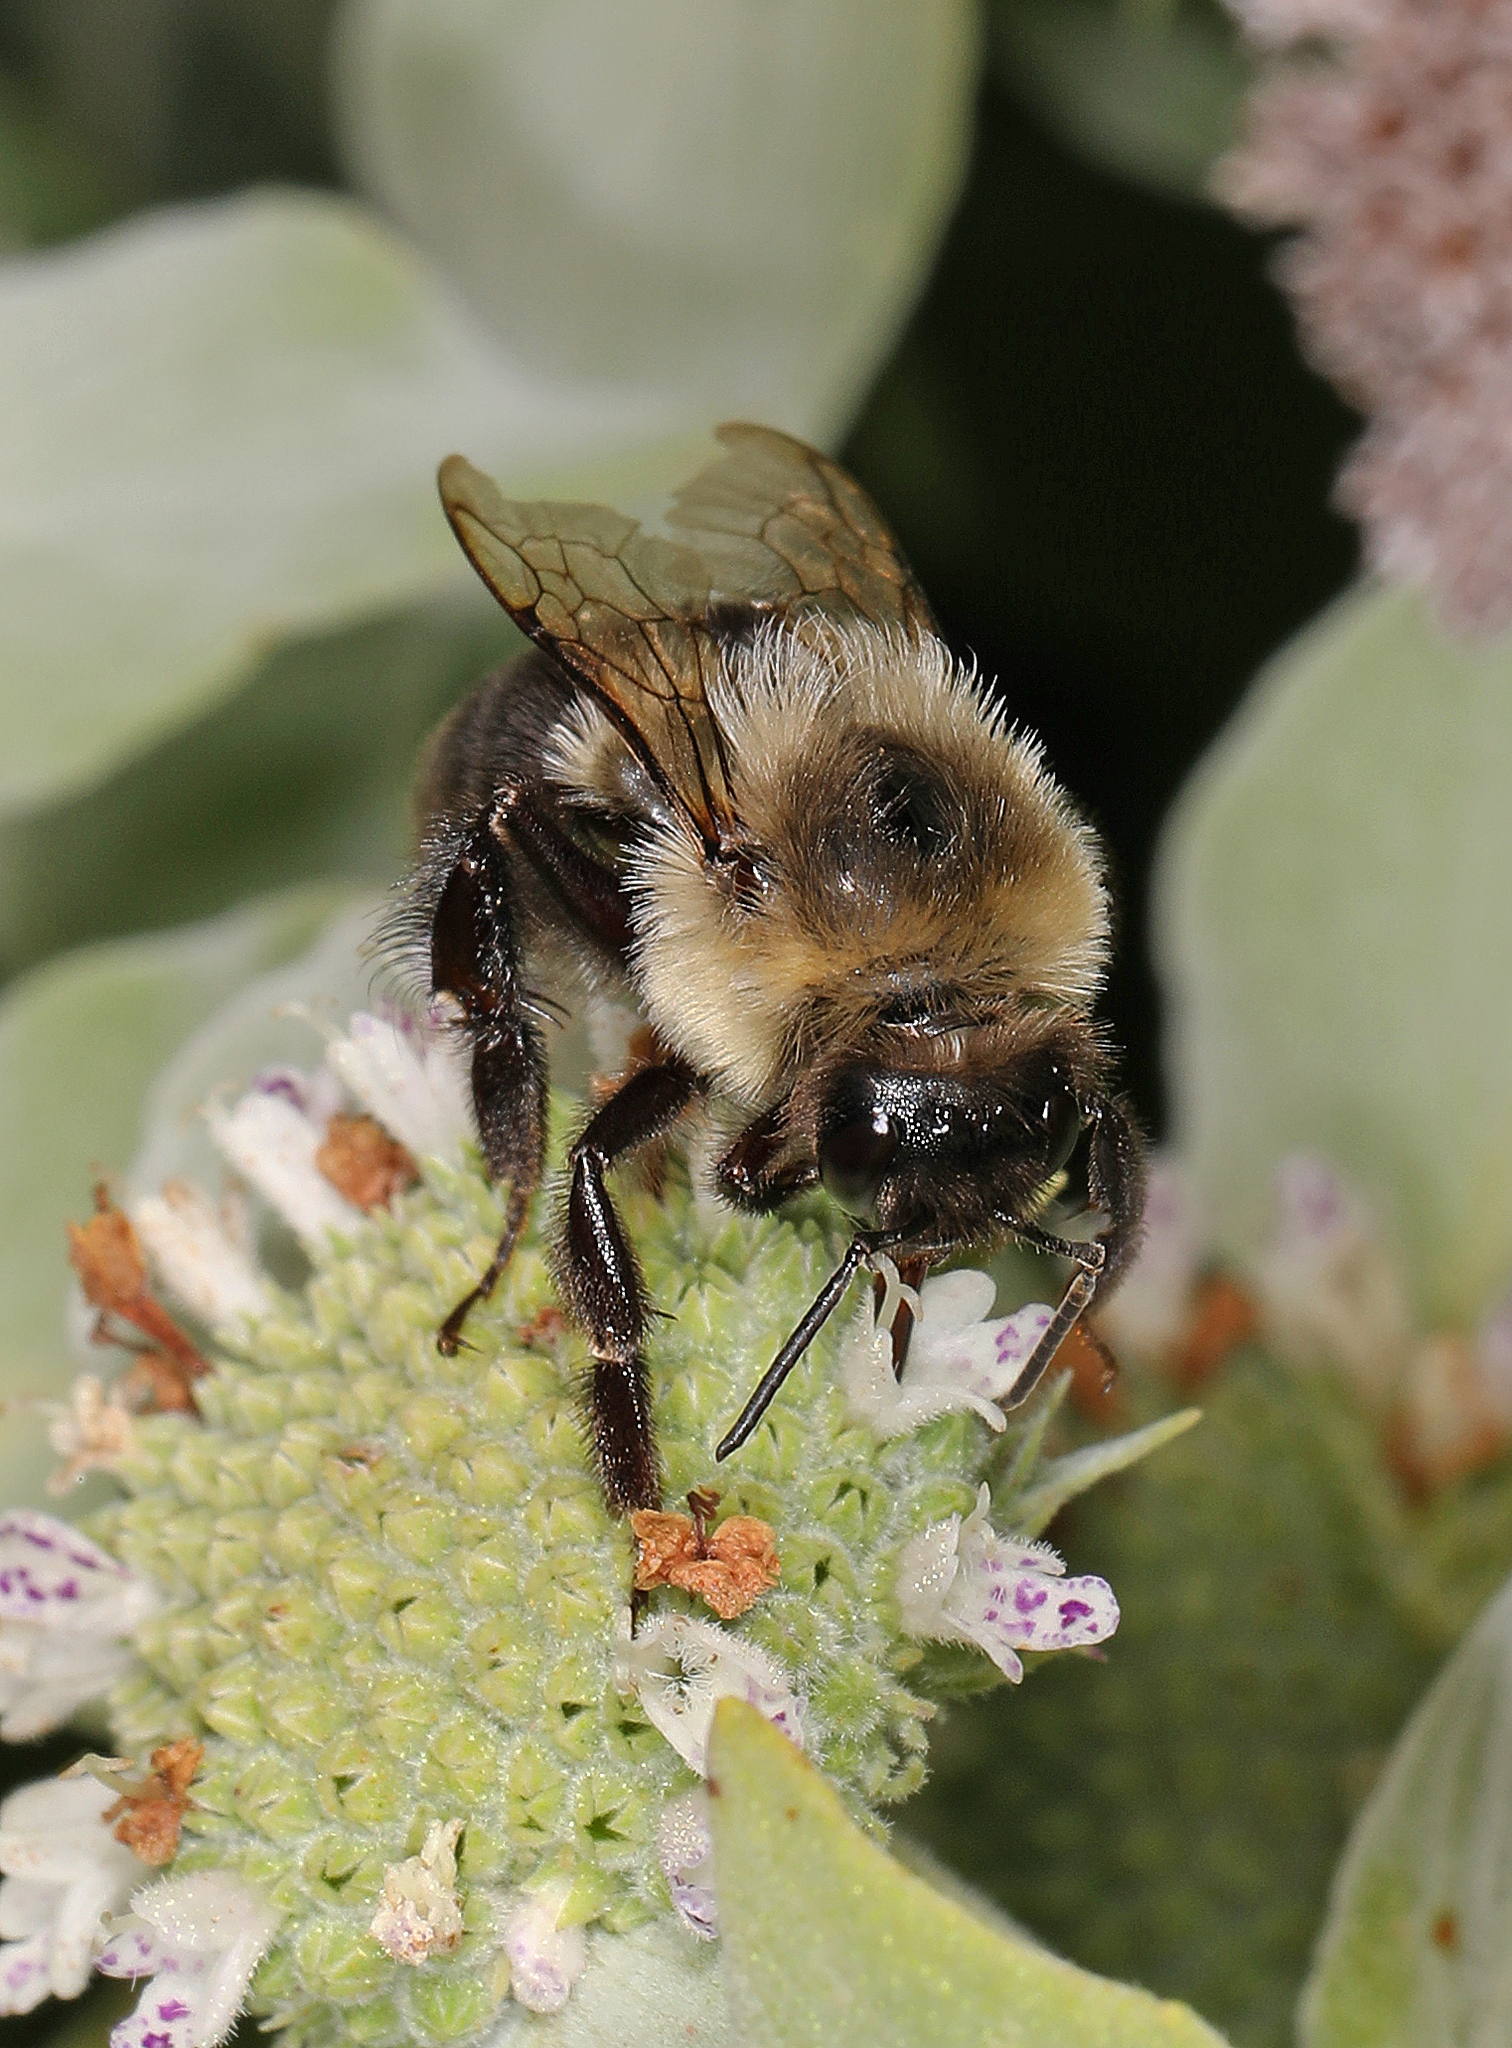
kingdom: Animalia
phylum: Arthropoda
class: Insecta
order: Hymenoptera
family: Apidae
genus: Bombus
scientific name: Bombus impatiens
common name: Common eastern bumble bee
